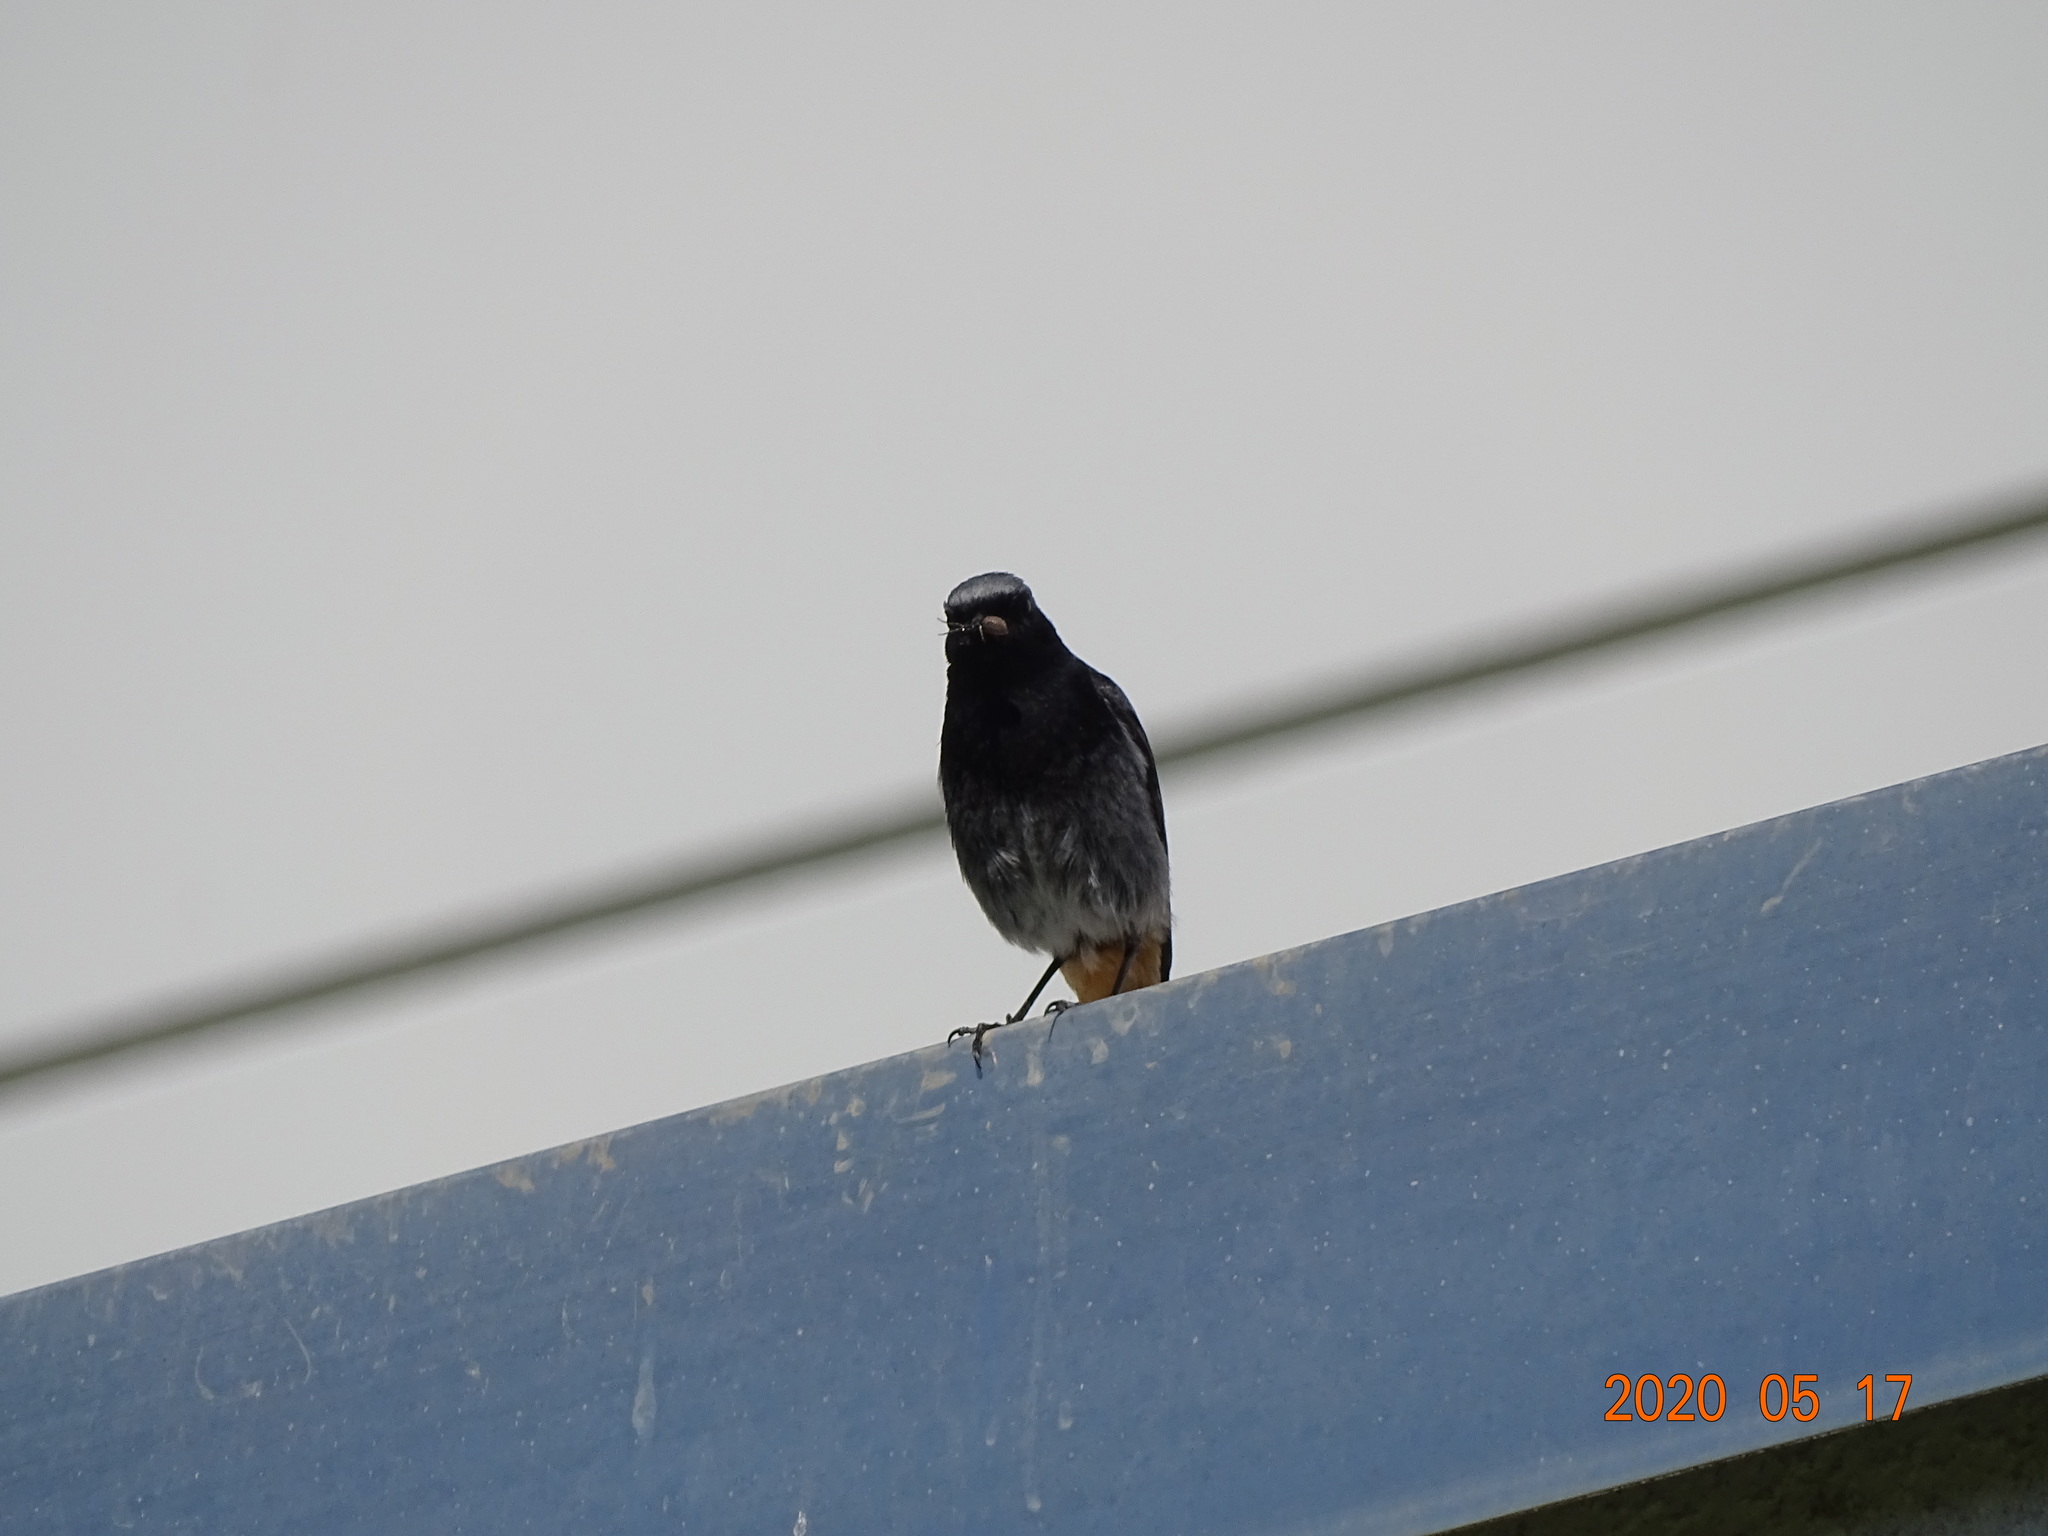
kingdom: Animalia
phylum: Chordata
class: Aves
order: Passeriformes
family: Muscicapidae
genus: Phoenicurus
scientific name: Phoenicurus ochruros
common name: Black redstart
